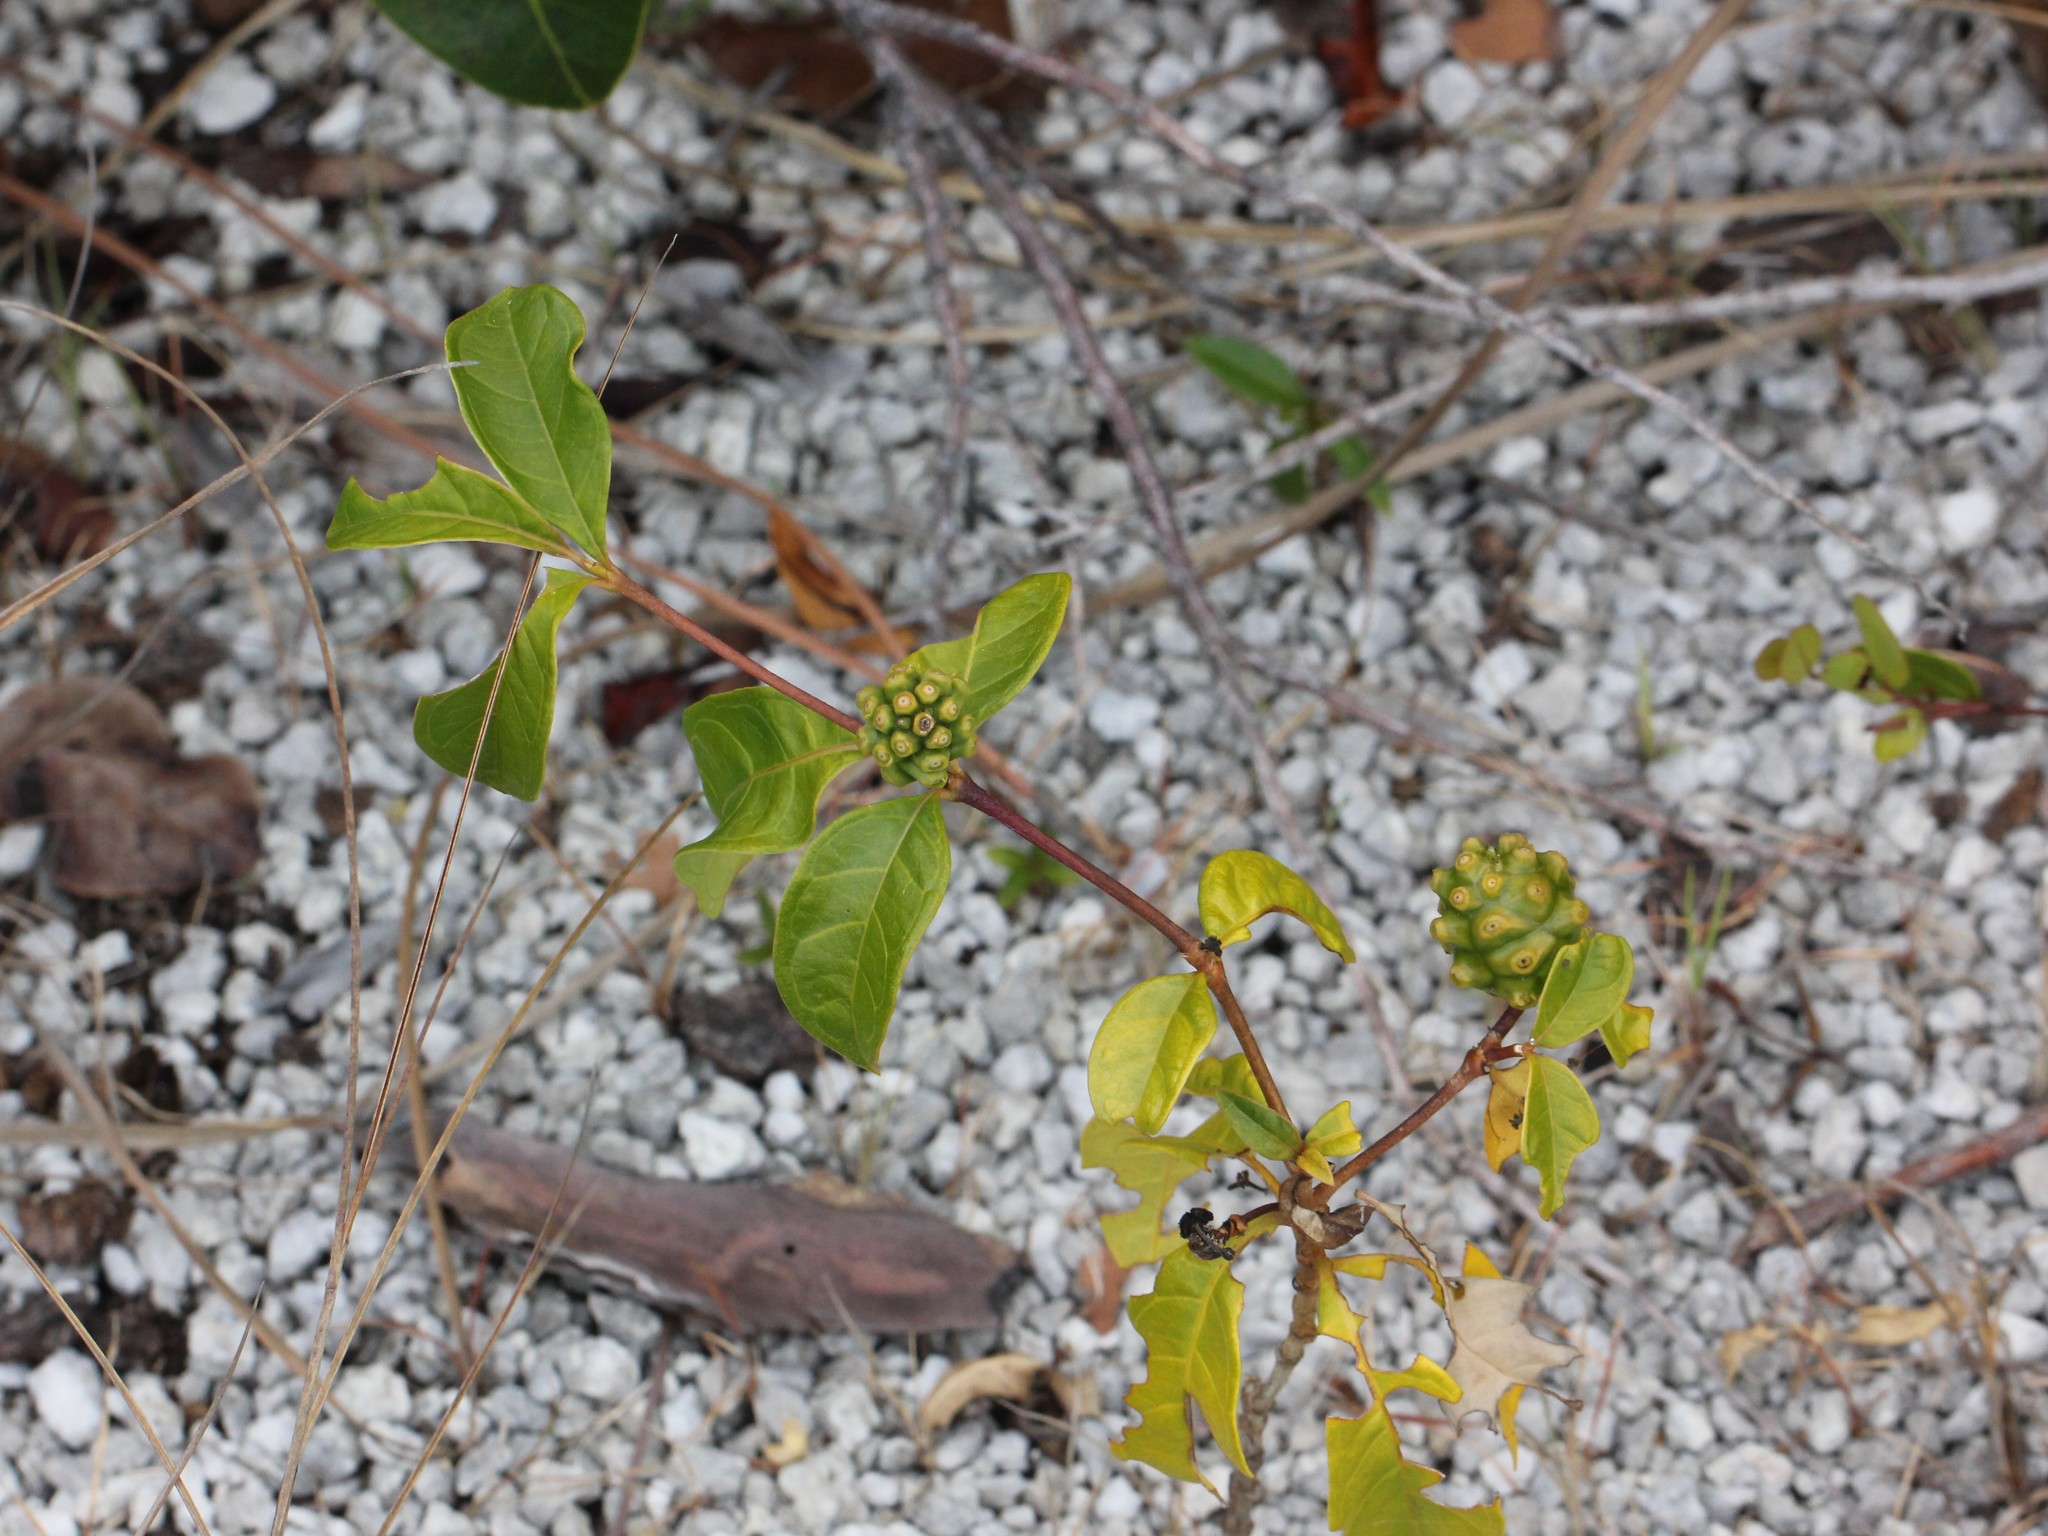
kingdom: Plantae
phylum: Tracheophyta
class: Magnoliopsida
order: Gentianales
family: Rubiaceae
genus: Morinda
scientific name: Morinda royoc
